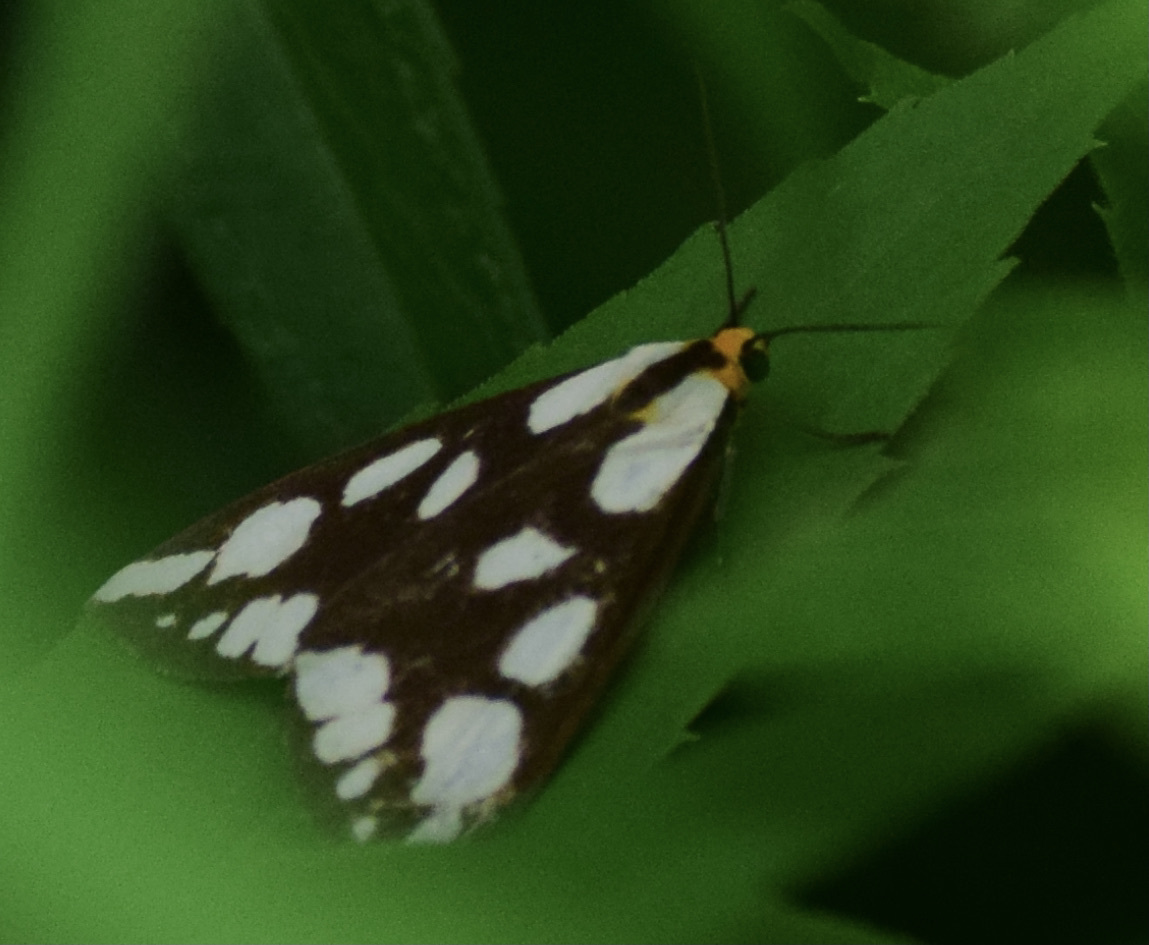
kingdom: Animalia
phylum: Arthropoda
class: Insecta
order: Lepidoptera
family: Erebidae
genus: Haploa
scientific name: Haploa confusa
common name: Confused haploa moth
